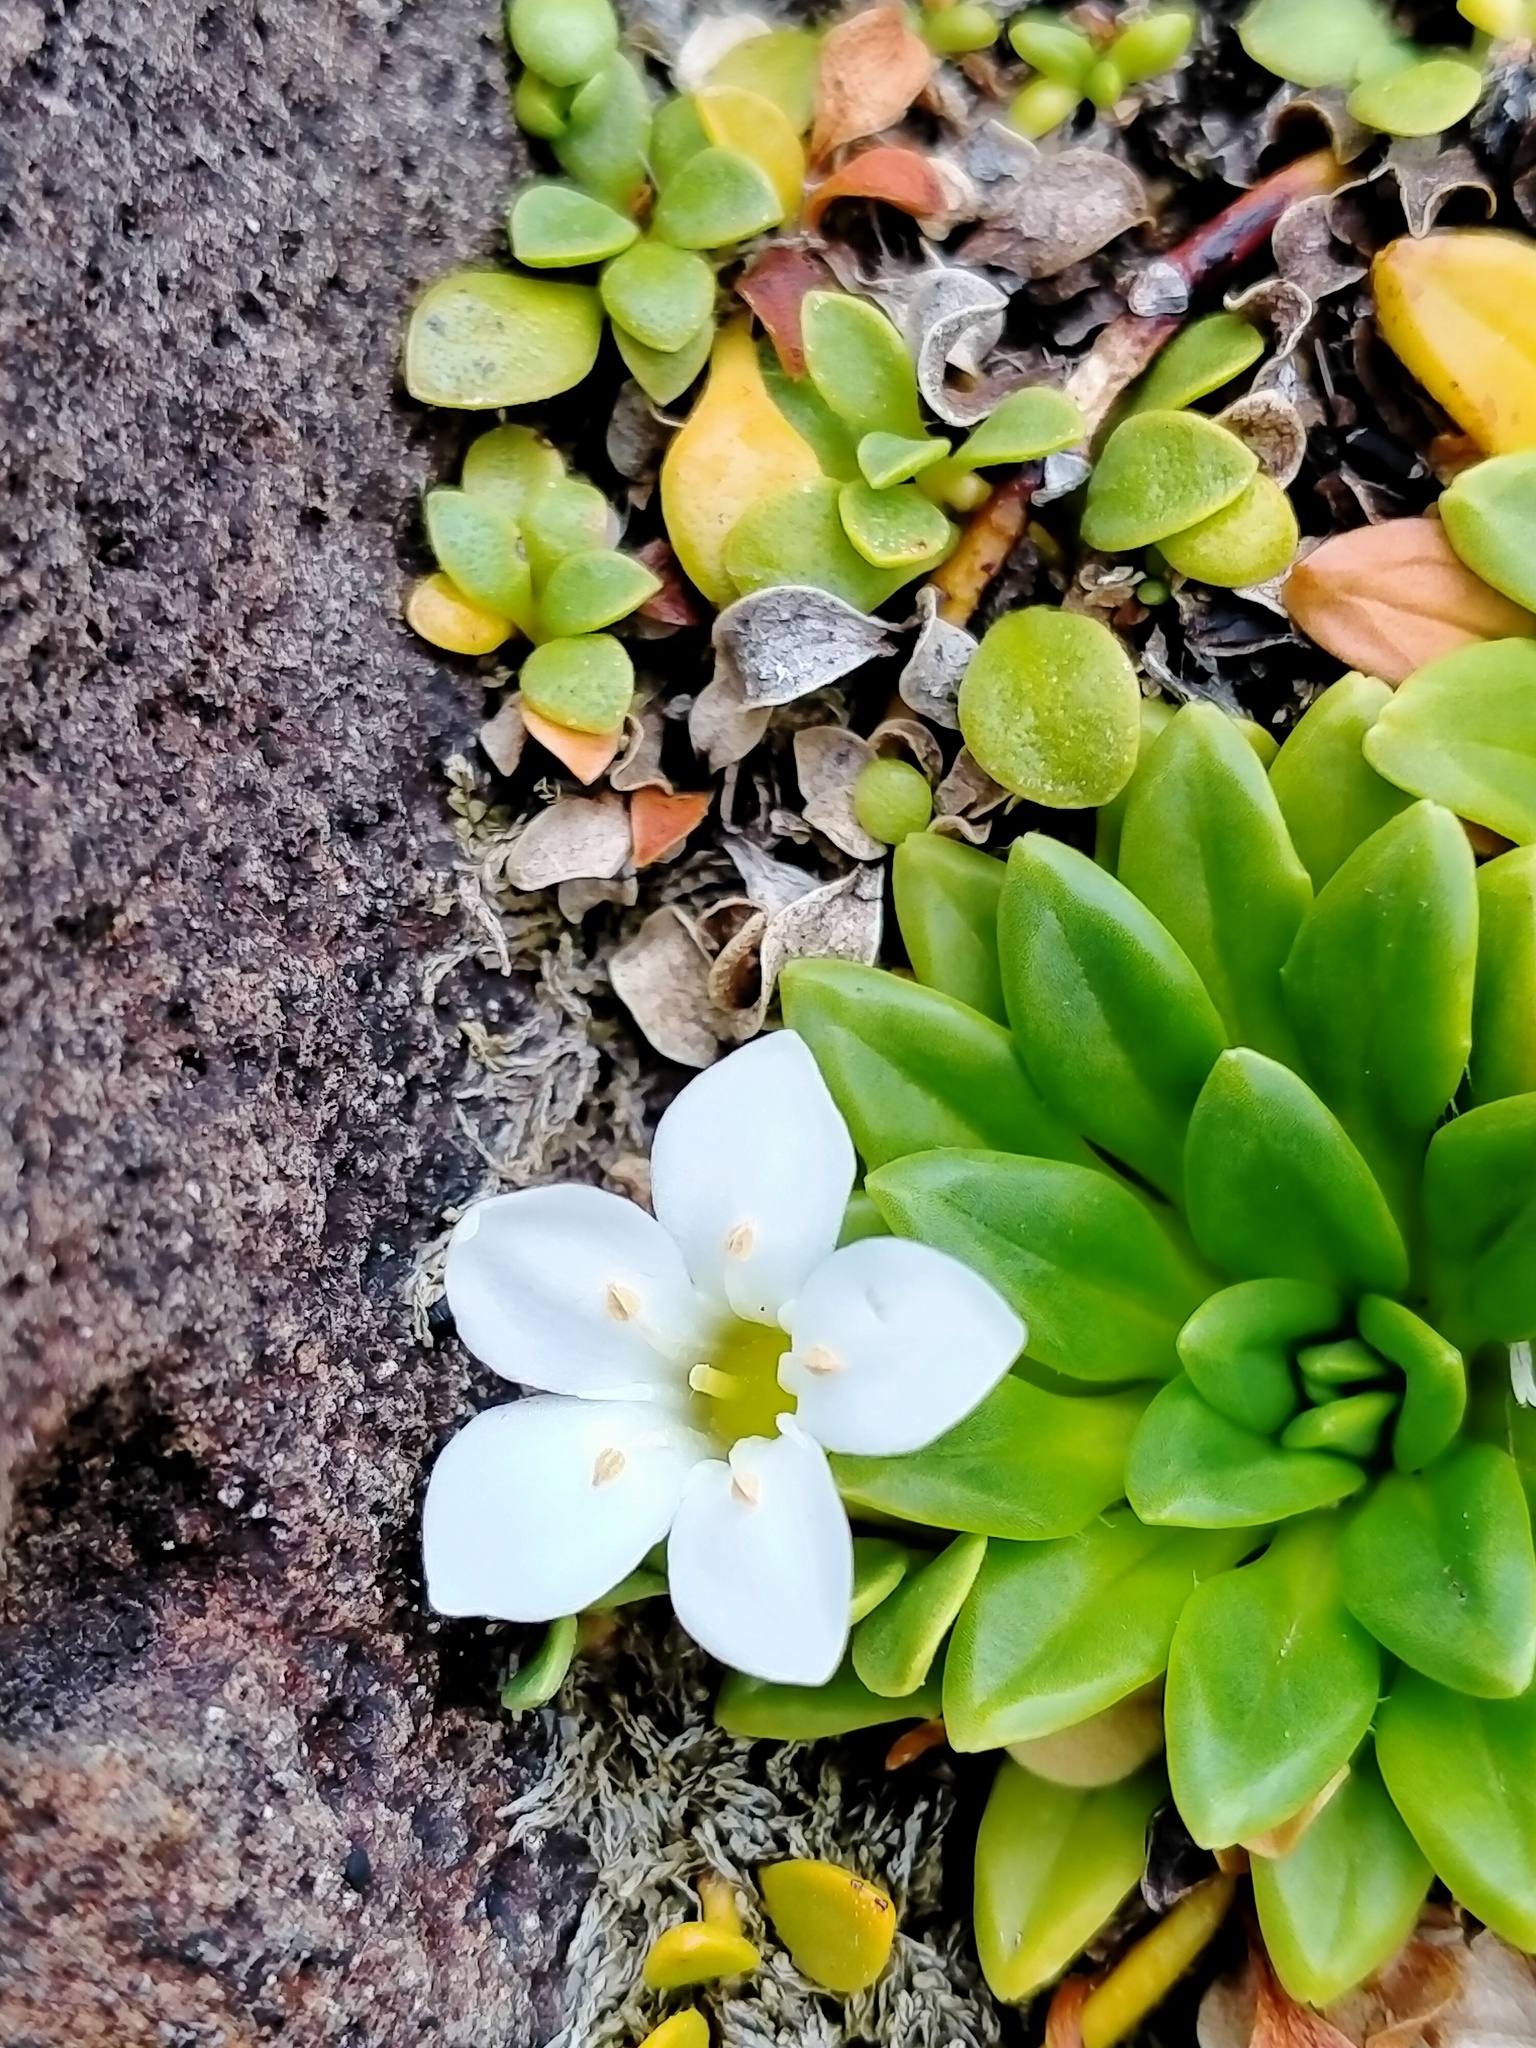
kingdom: Plantae
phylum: Tracheophyta
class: Magnoliopsida
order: Ericales
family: Primulaceae
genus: Samolus
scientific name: Samolus repens
